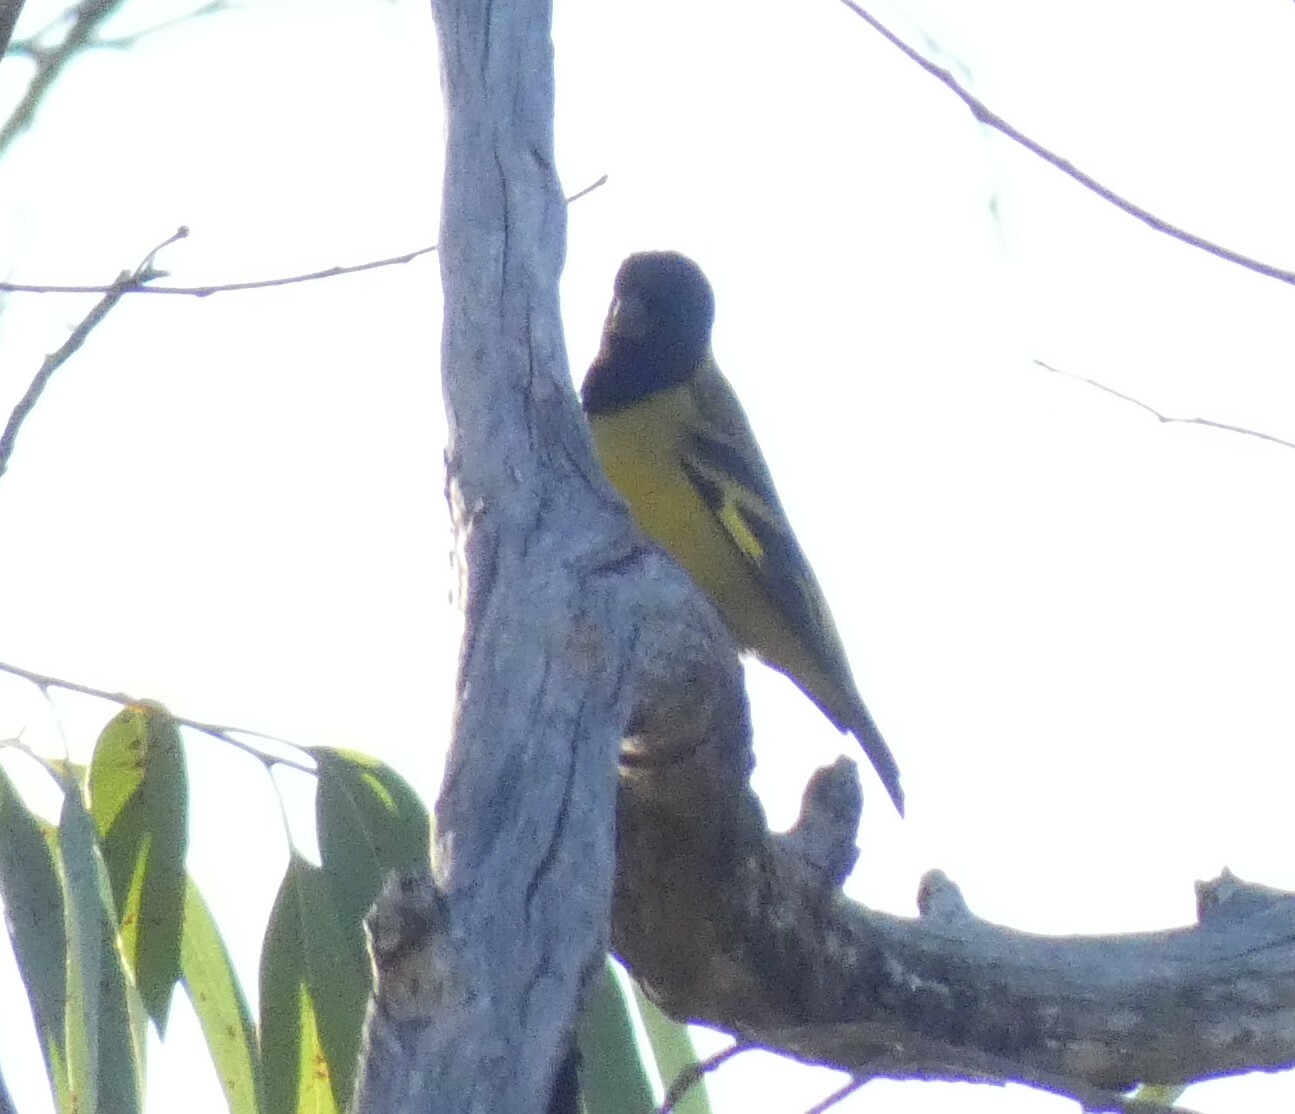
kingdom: Animalia
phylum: Chordata
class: Aves
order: Passeriformes
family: Fringillidae
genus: Spinus
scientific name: Spinus magellanicus
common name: Hooded siskin
